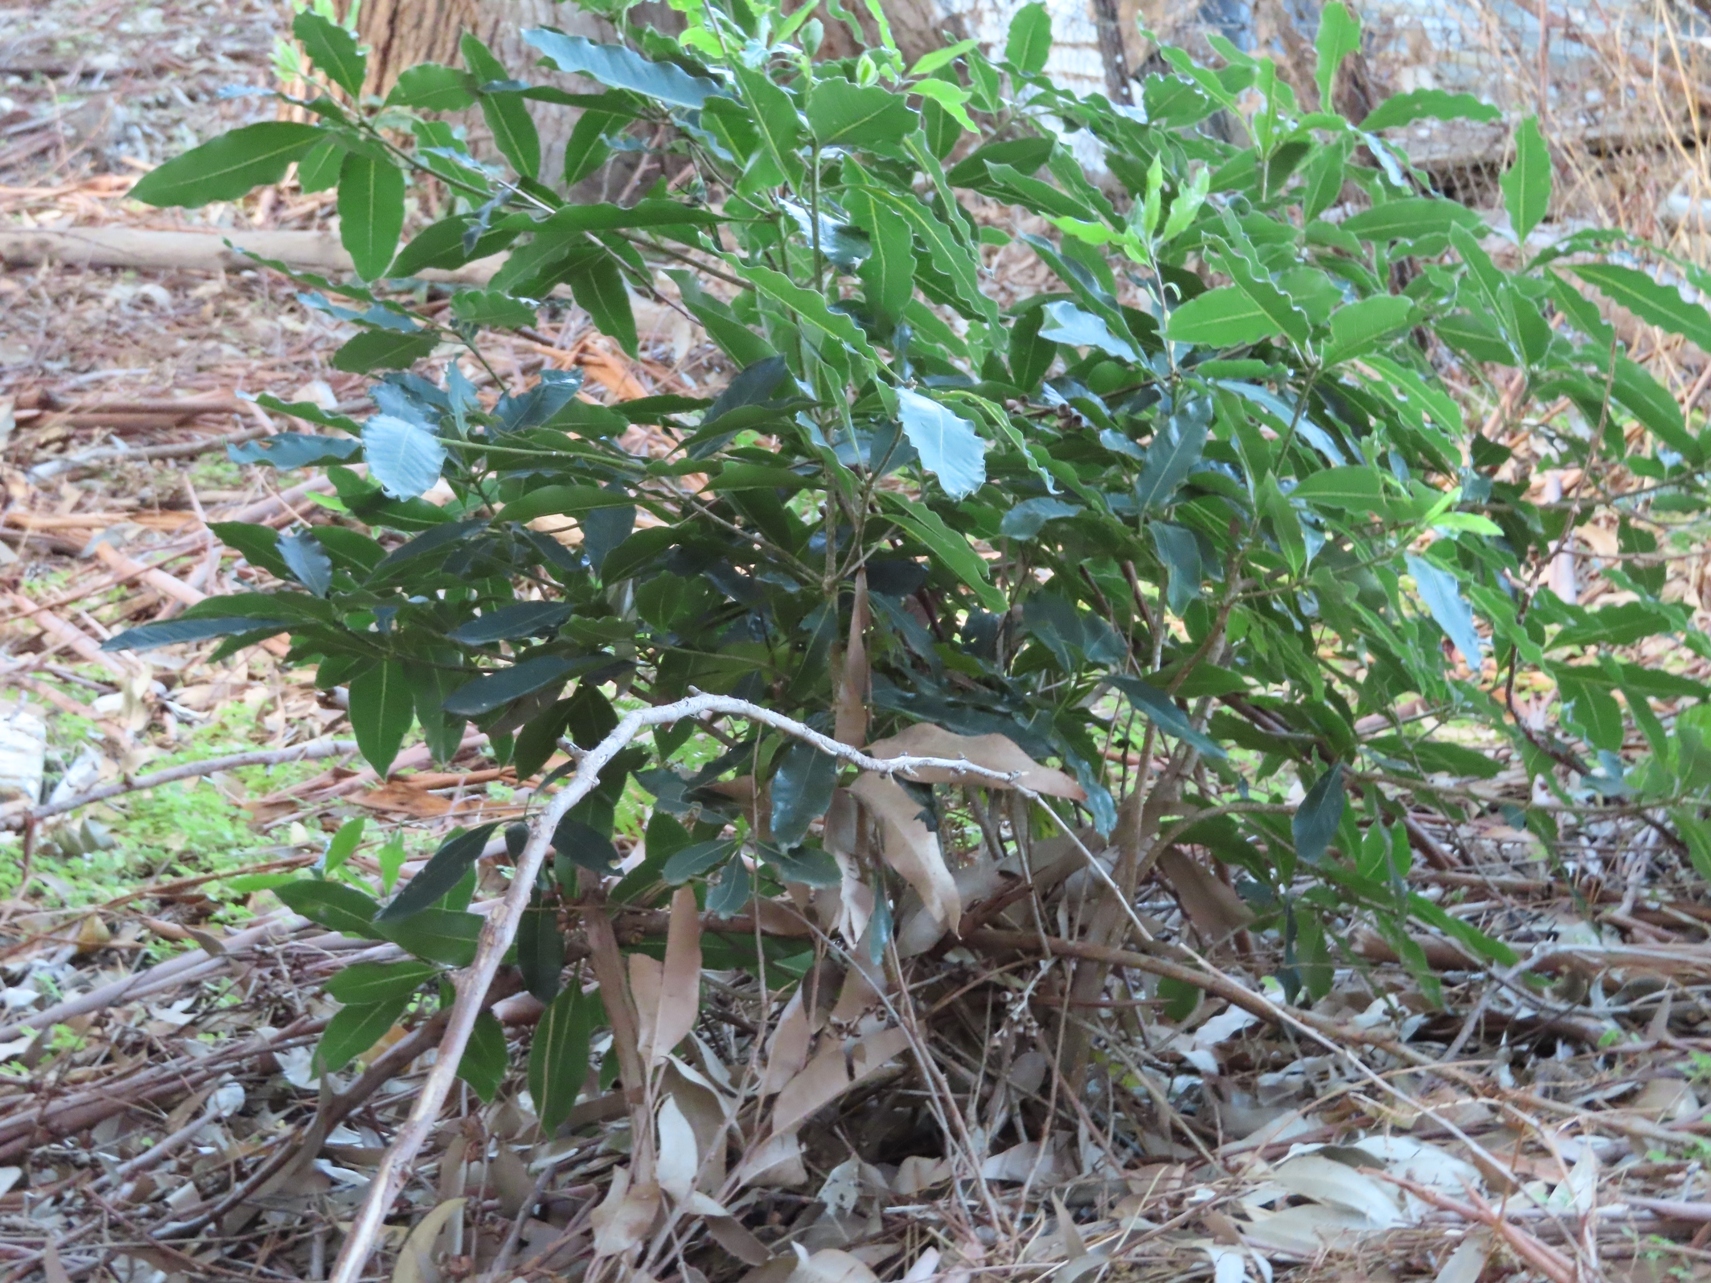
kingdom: Plantae
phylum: Tracheophyta
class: Magnoliopsida
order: Apiales
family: Pittosporaceae
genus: Pittosporum
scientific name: Pittosporum undulatum
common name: Australian cheesewood
